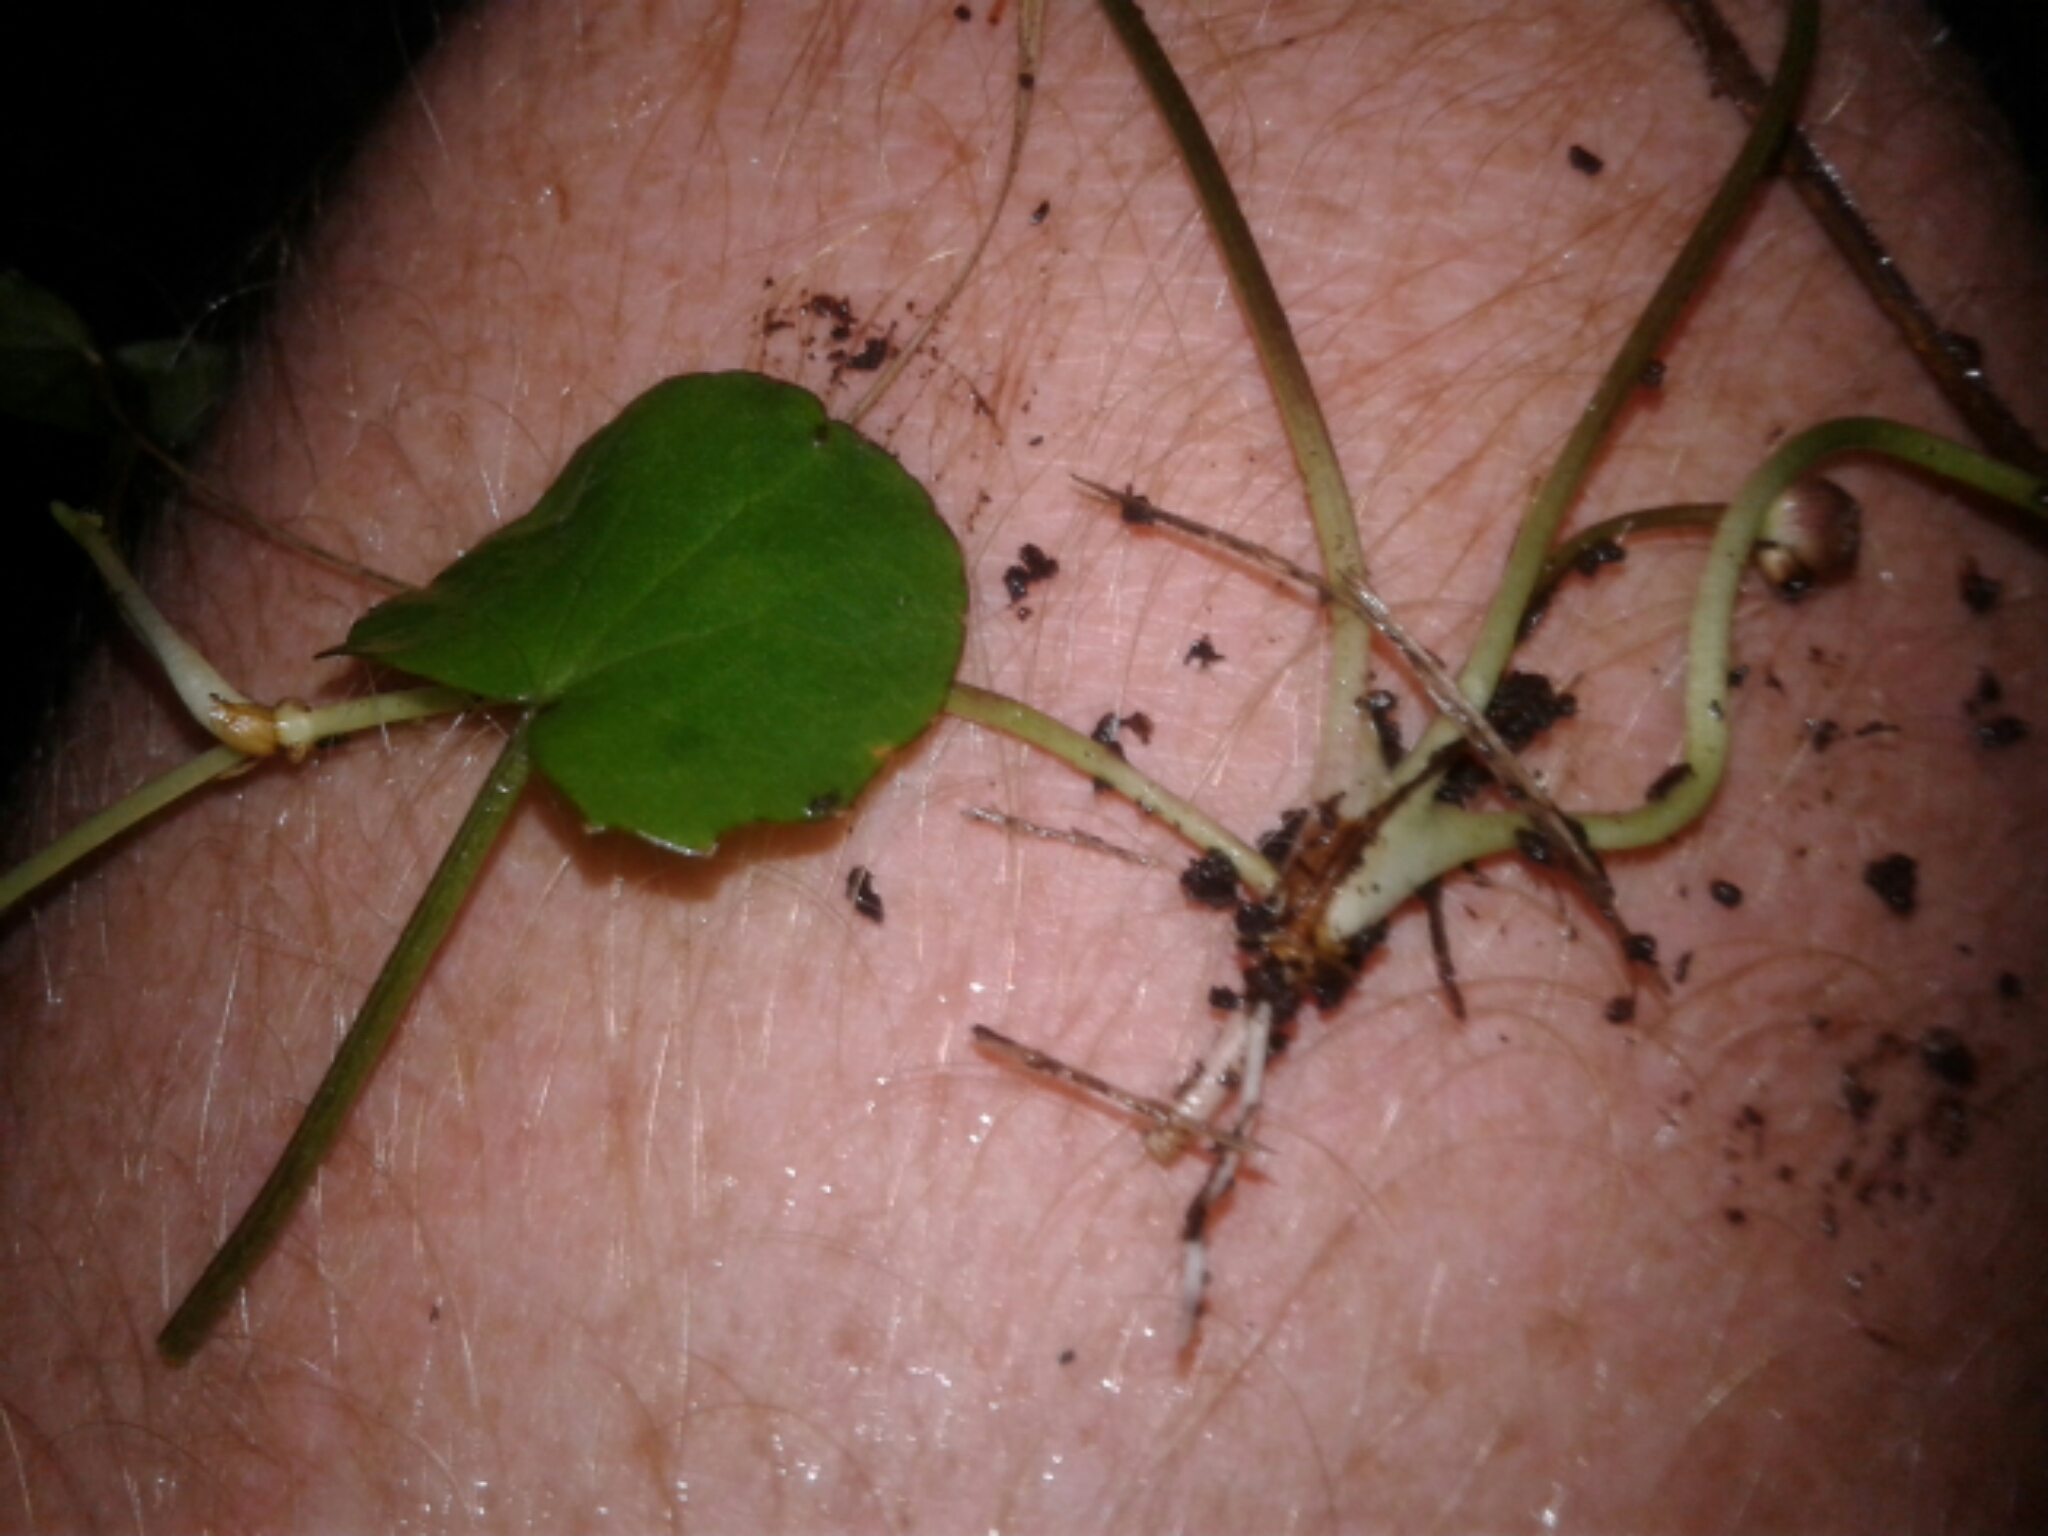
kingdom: Plantae
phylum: Tracheophyta
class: Magnoliopsida
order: Apiales
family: Apiaceae
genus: Centella
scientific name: Centella uniflora
